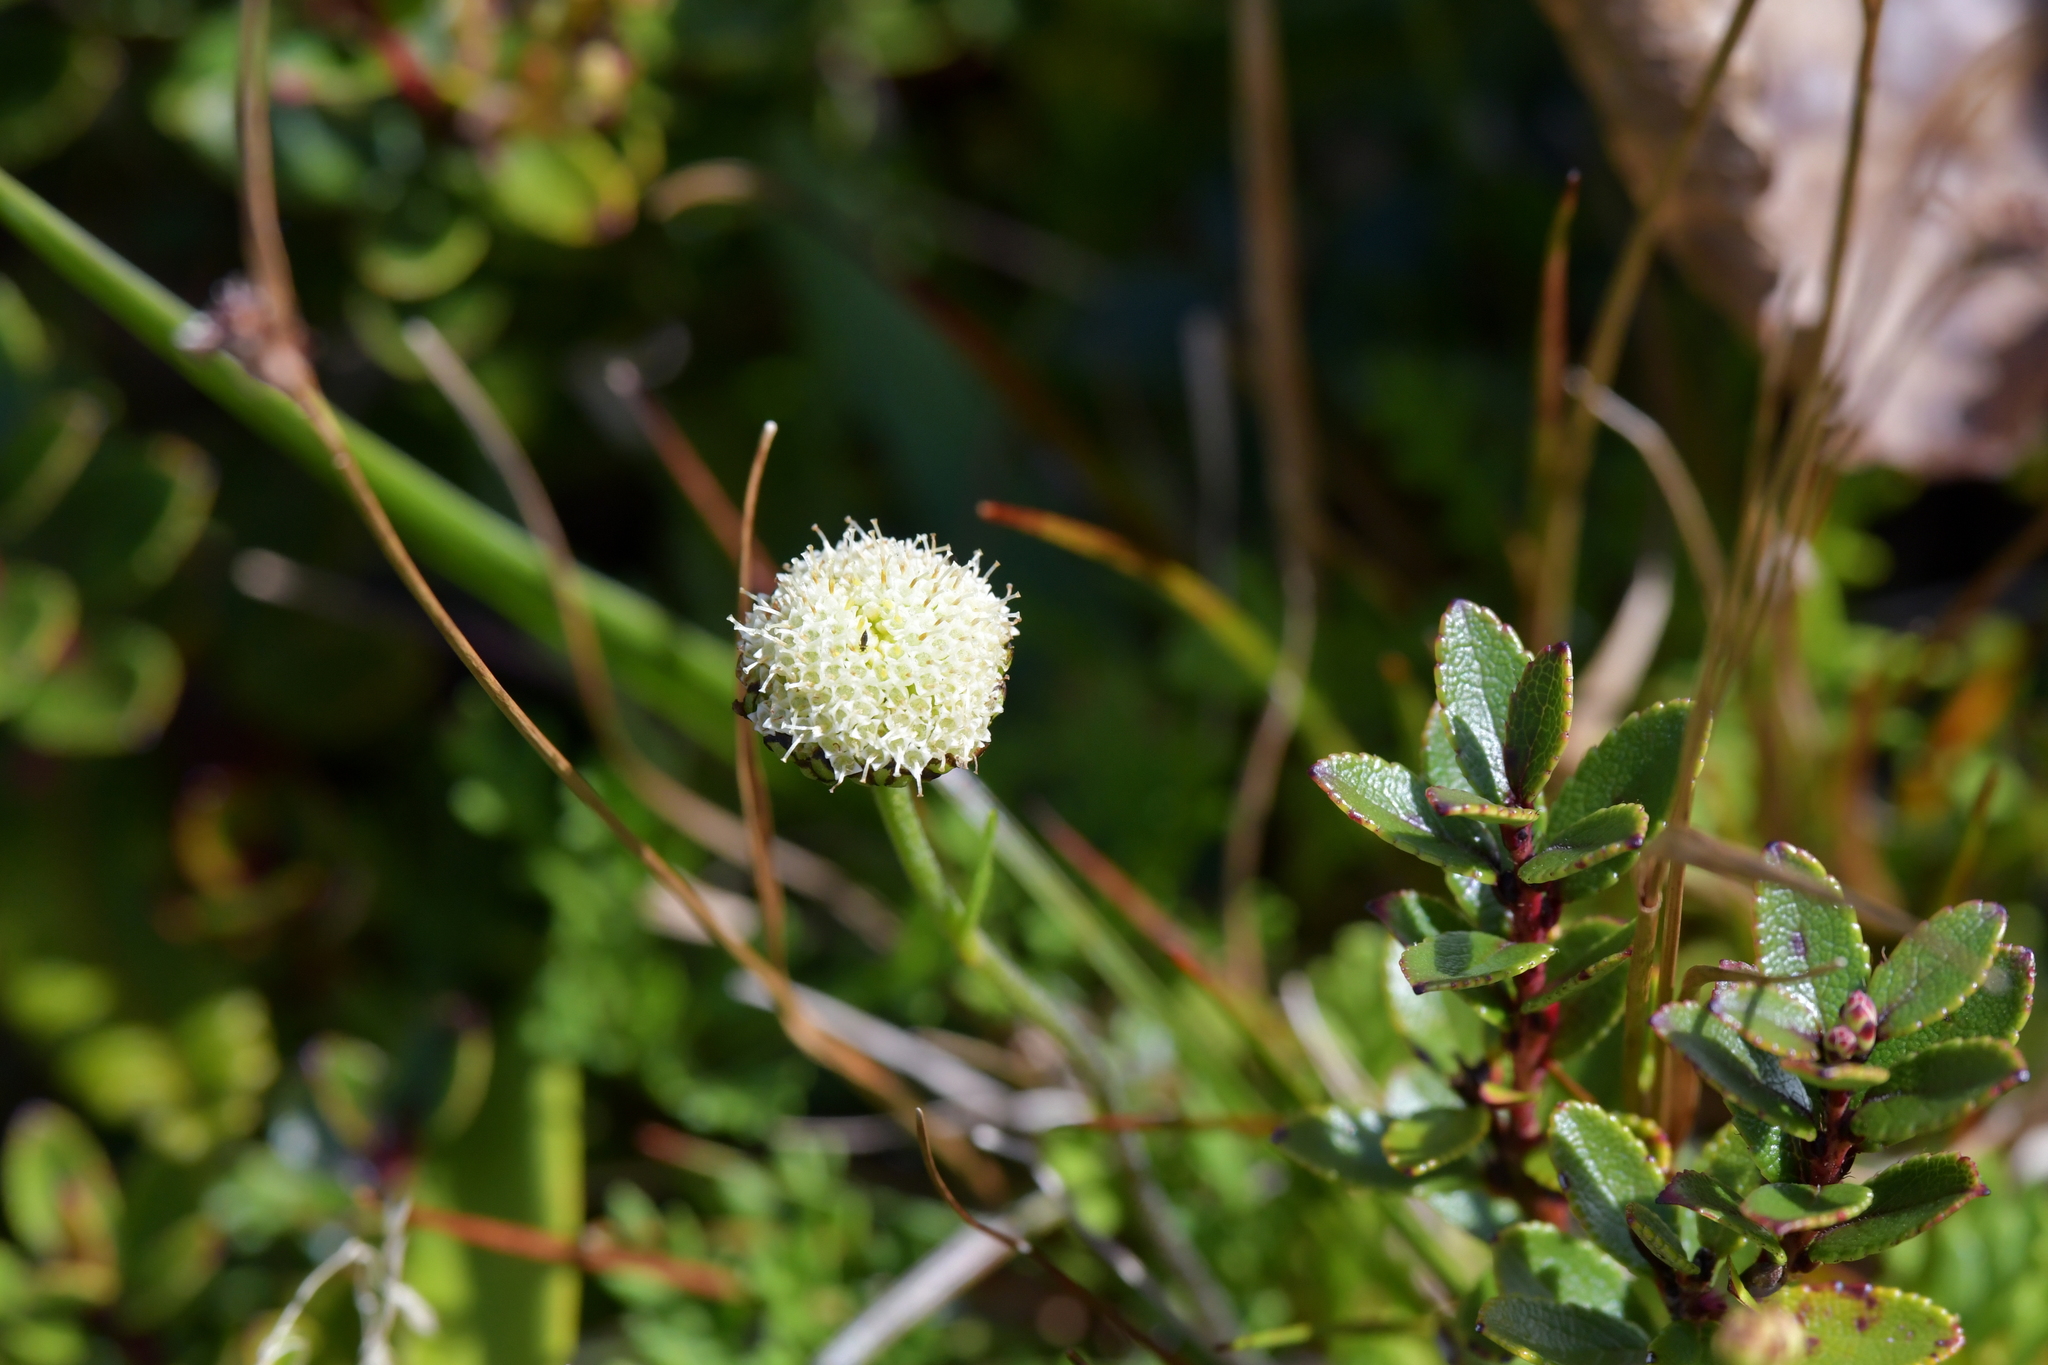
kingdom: Plantae
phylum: Tracheophyta
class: Magnoliopsida
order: Asterales
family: Asteraceae
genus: Leptinella
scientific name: Leptinella pyrethrifolia
